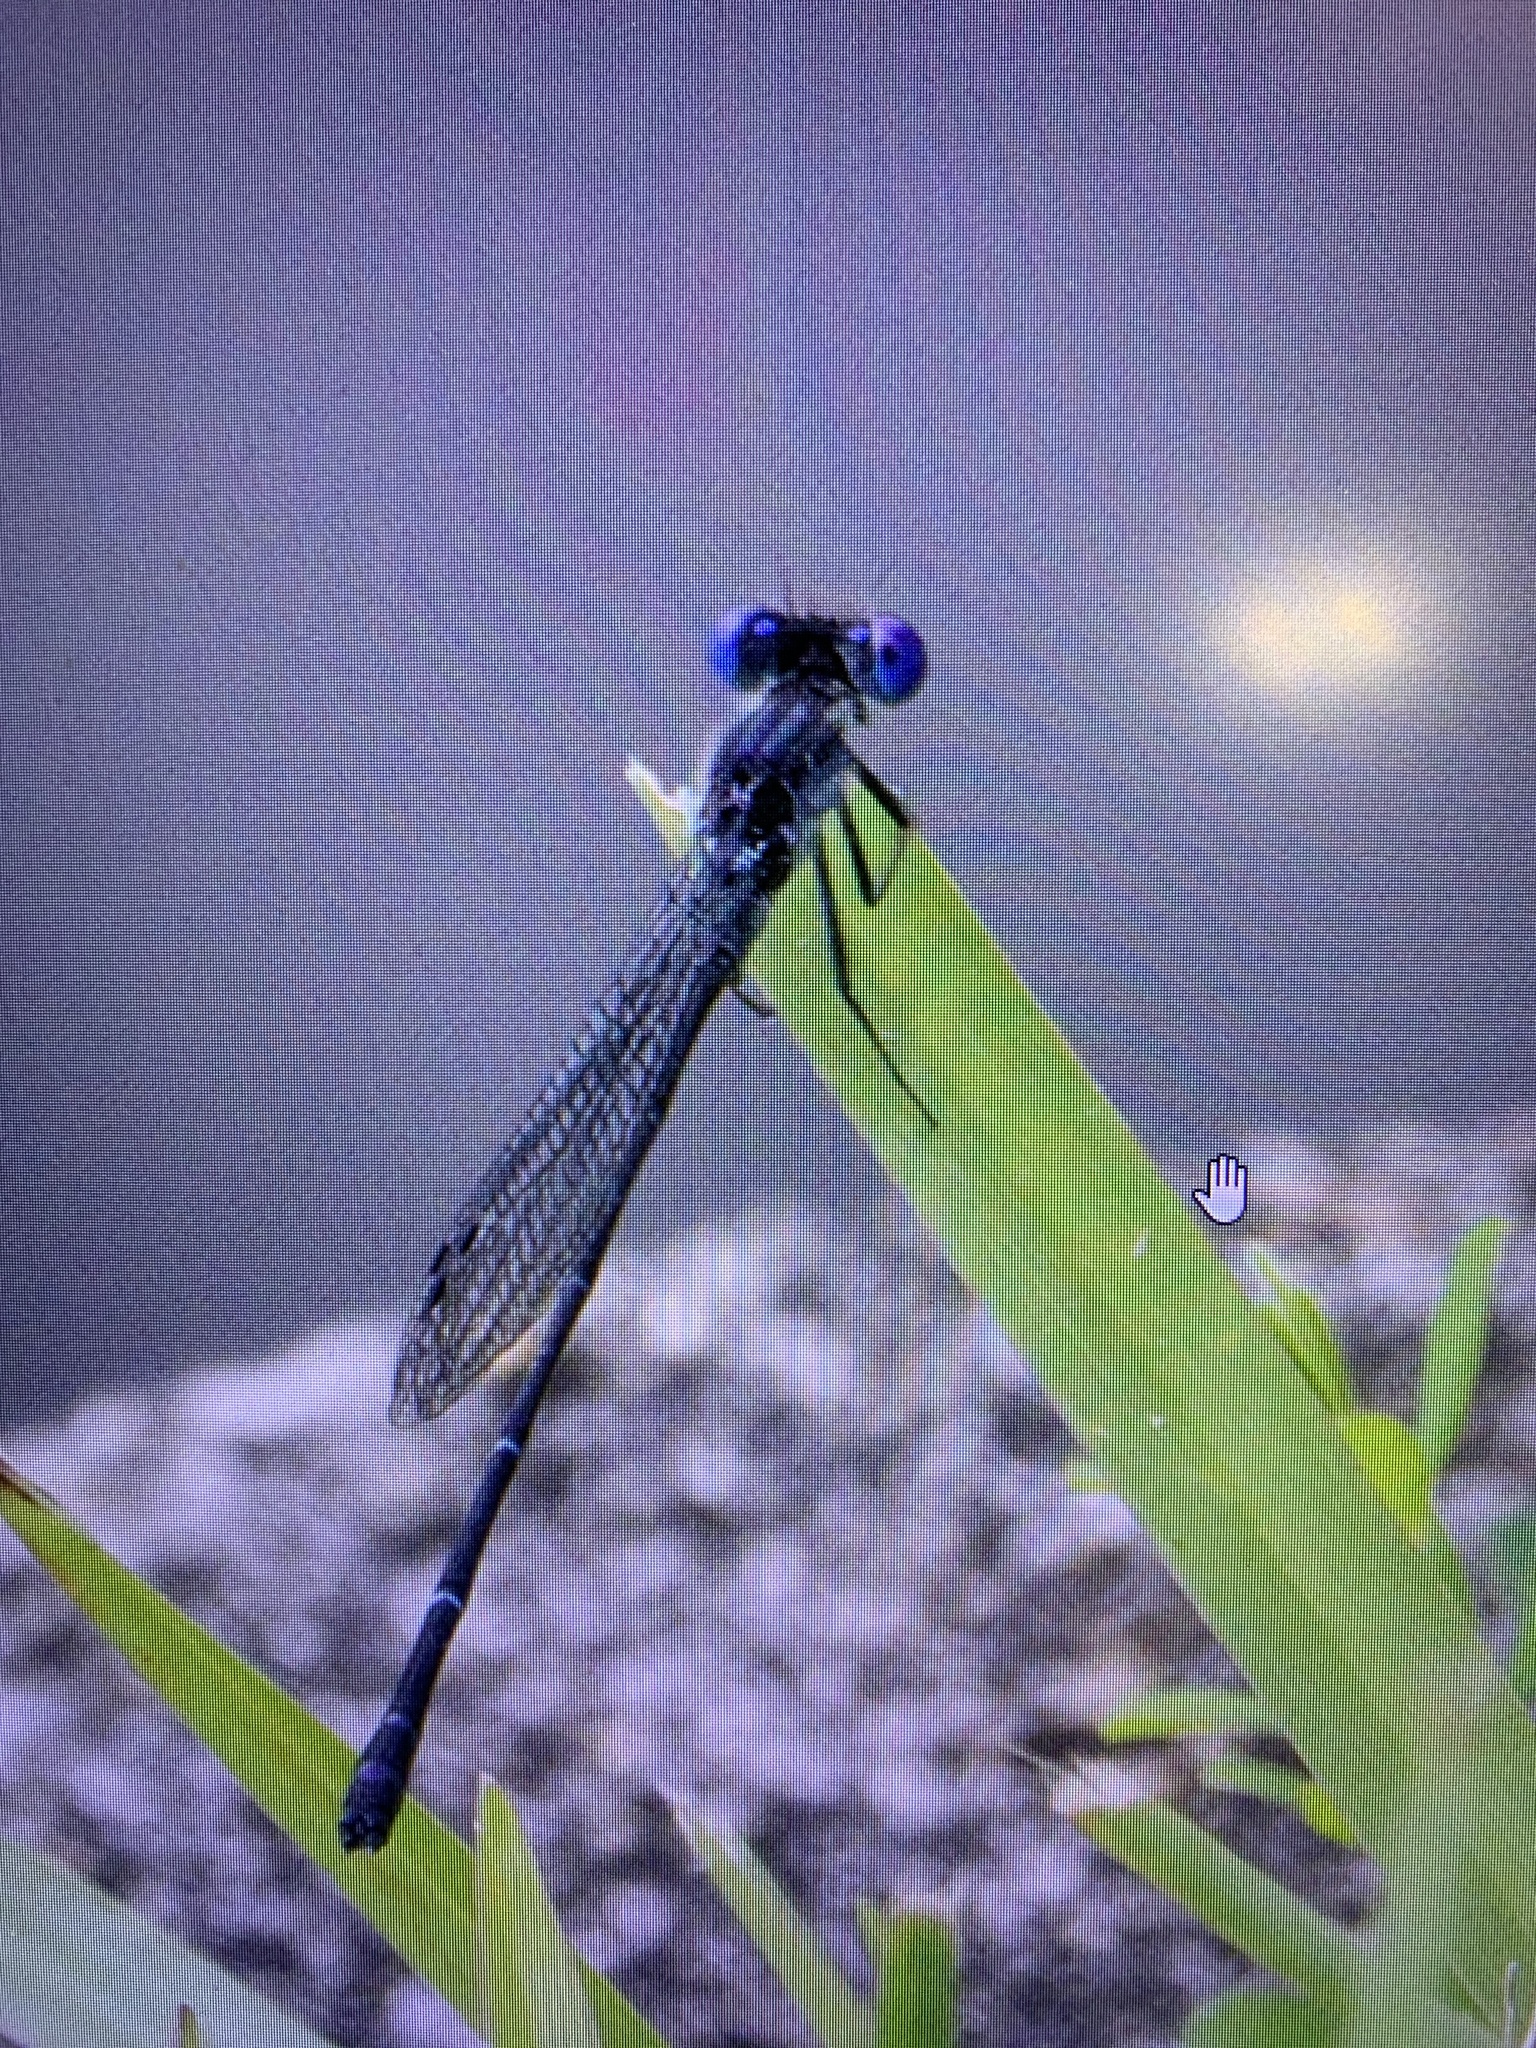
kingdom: Animalia
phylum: Arthropoda
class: Insecta
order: Odonata
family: Coenagrionidae
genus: Argia
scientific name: Argia translata
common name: Dusky dancer
